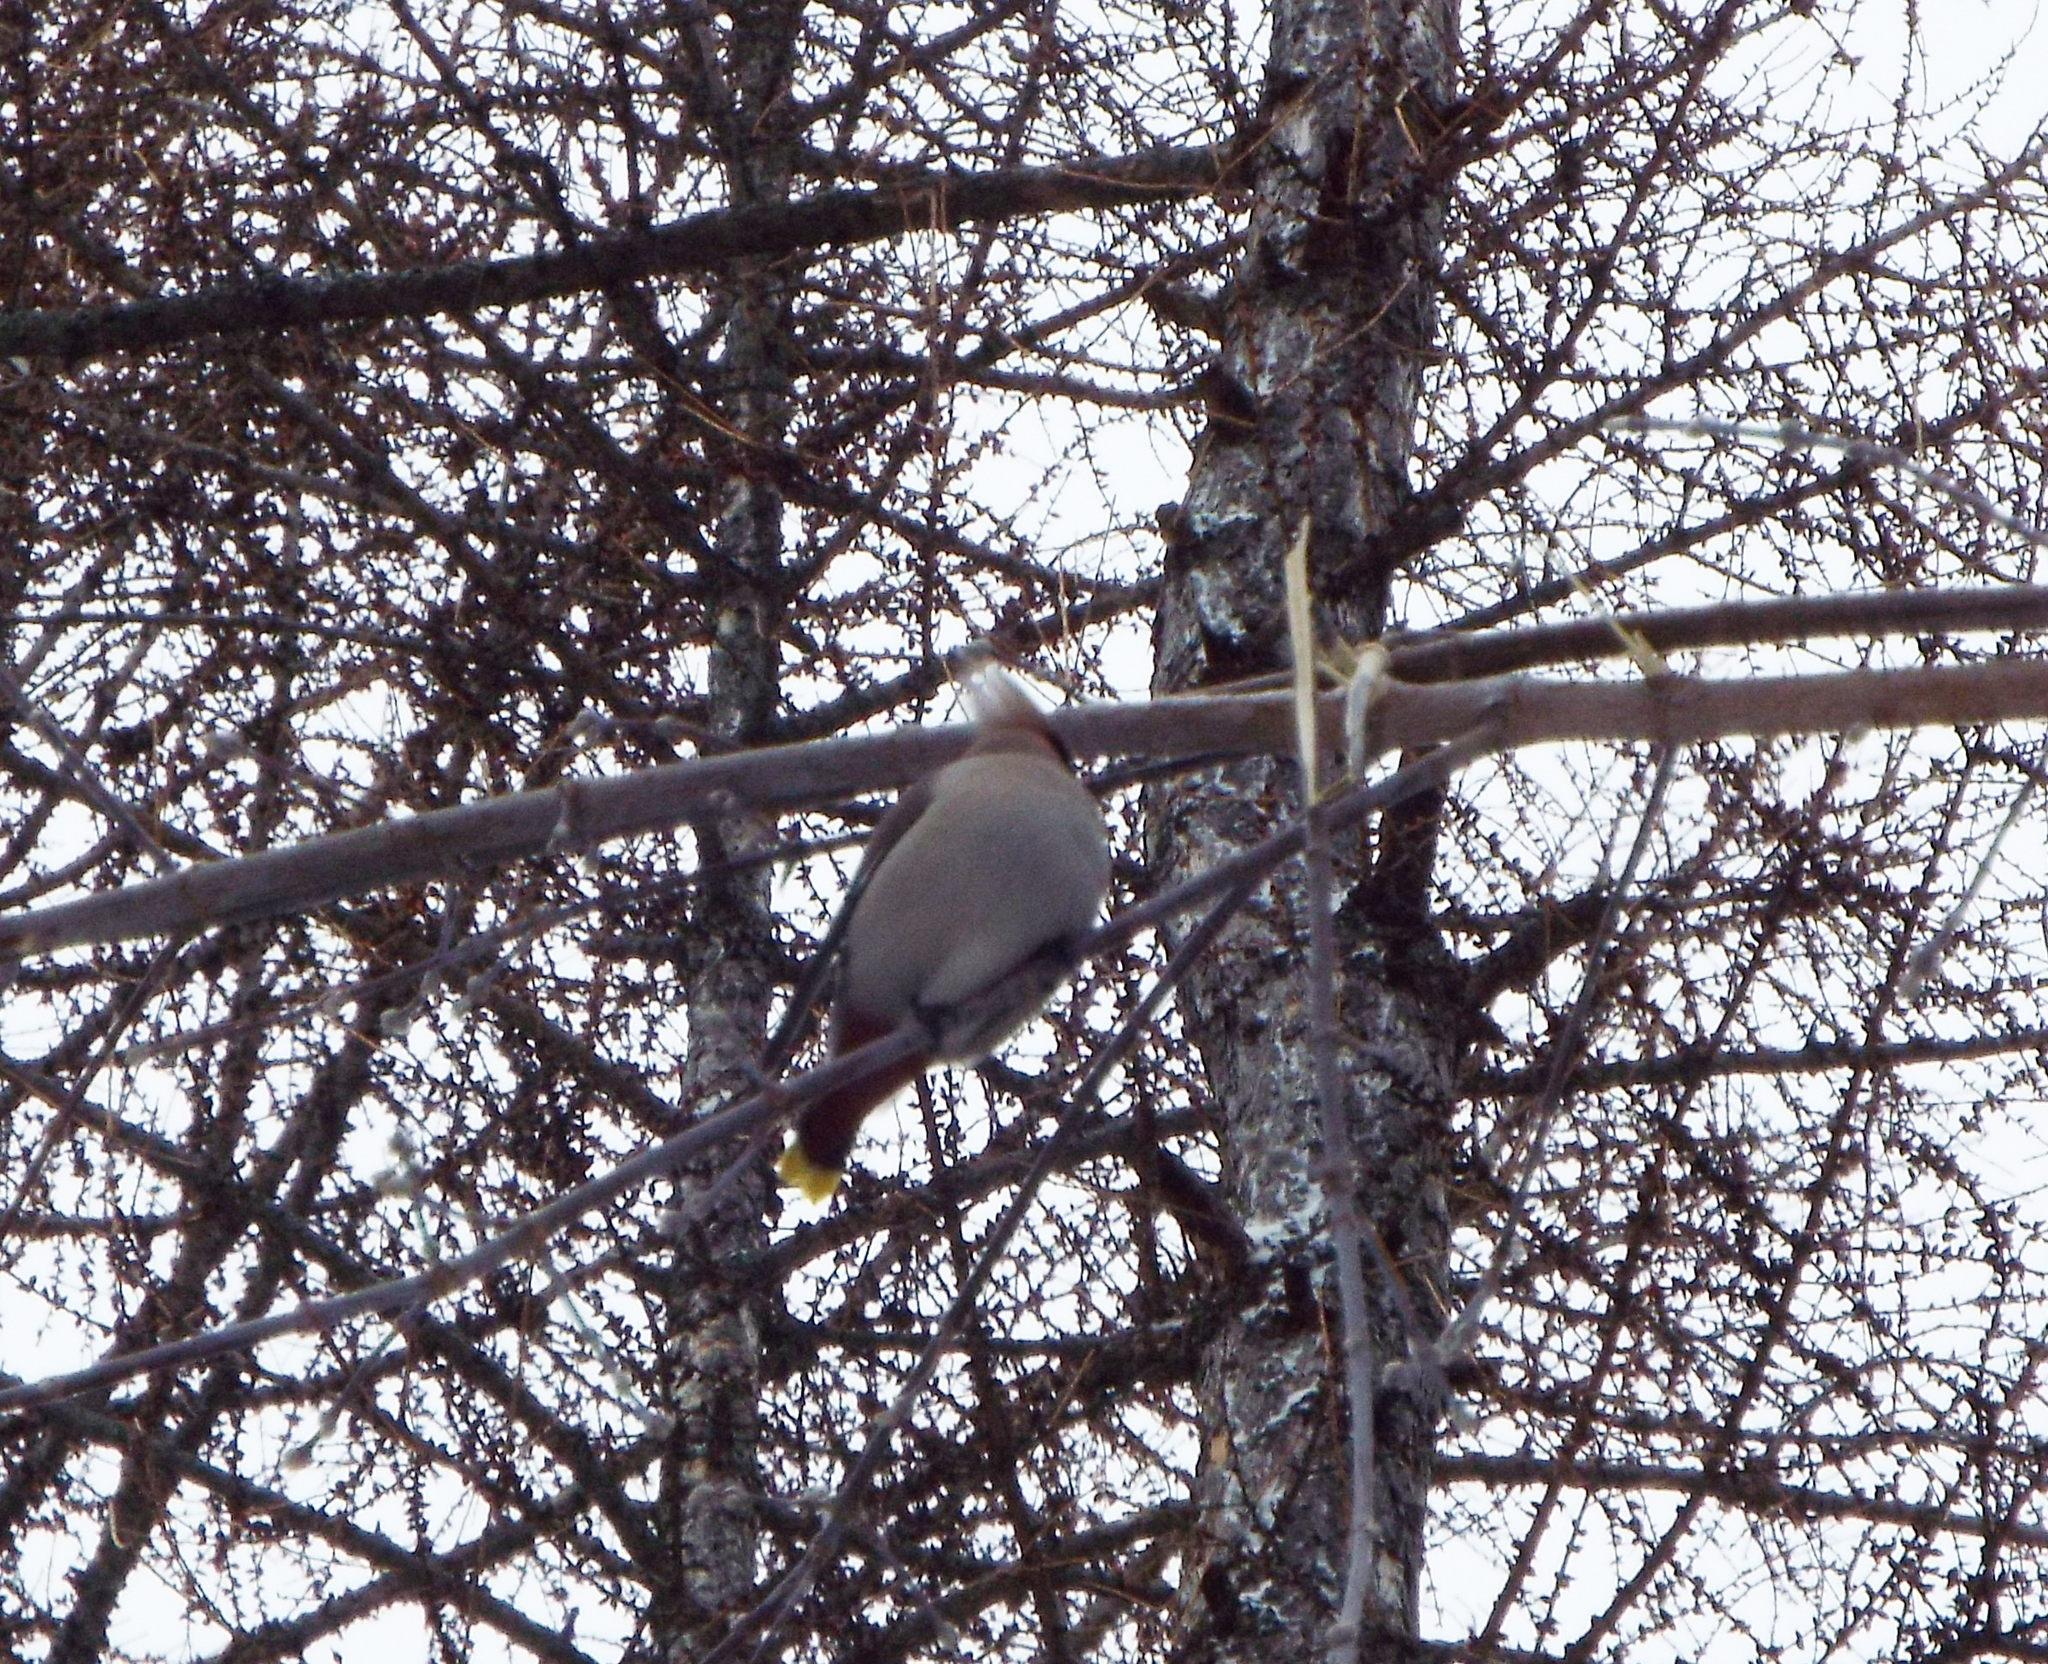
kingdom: Animalia
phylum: Chordata
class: Aves
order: Passeriformes
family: Bombycillidae
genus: Bombycilla
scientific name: Bombycilla garrulus
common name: Bohemian waxwing
